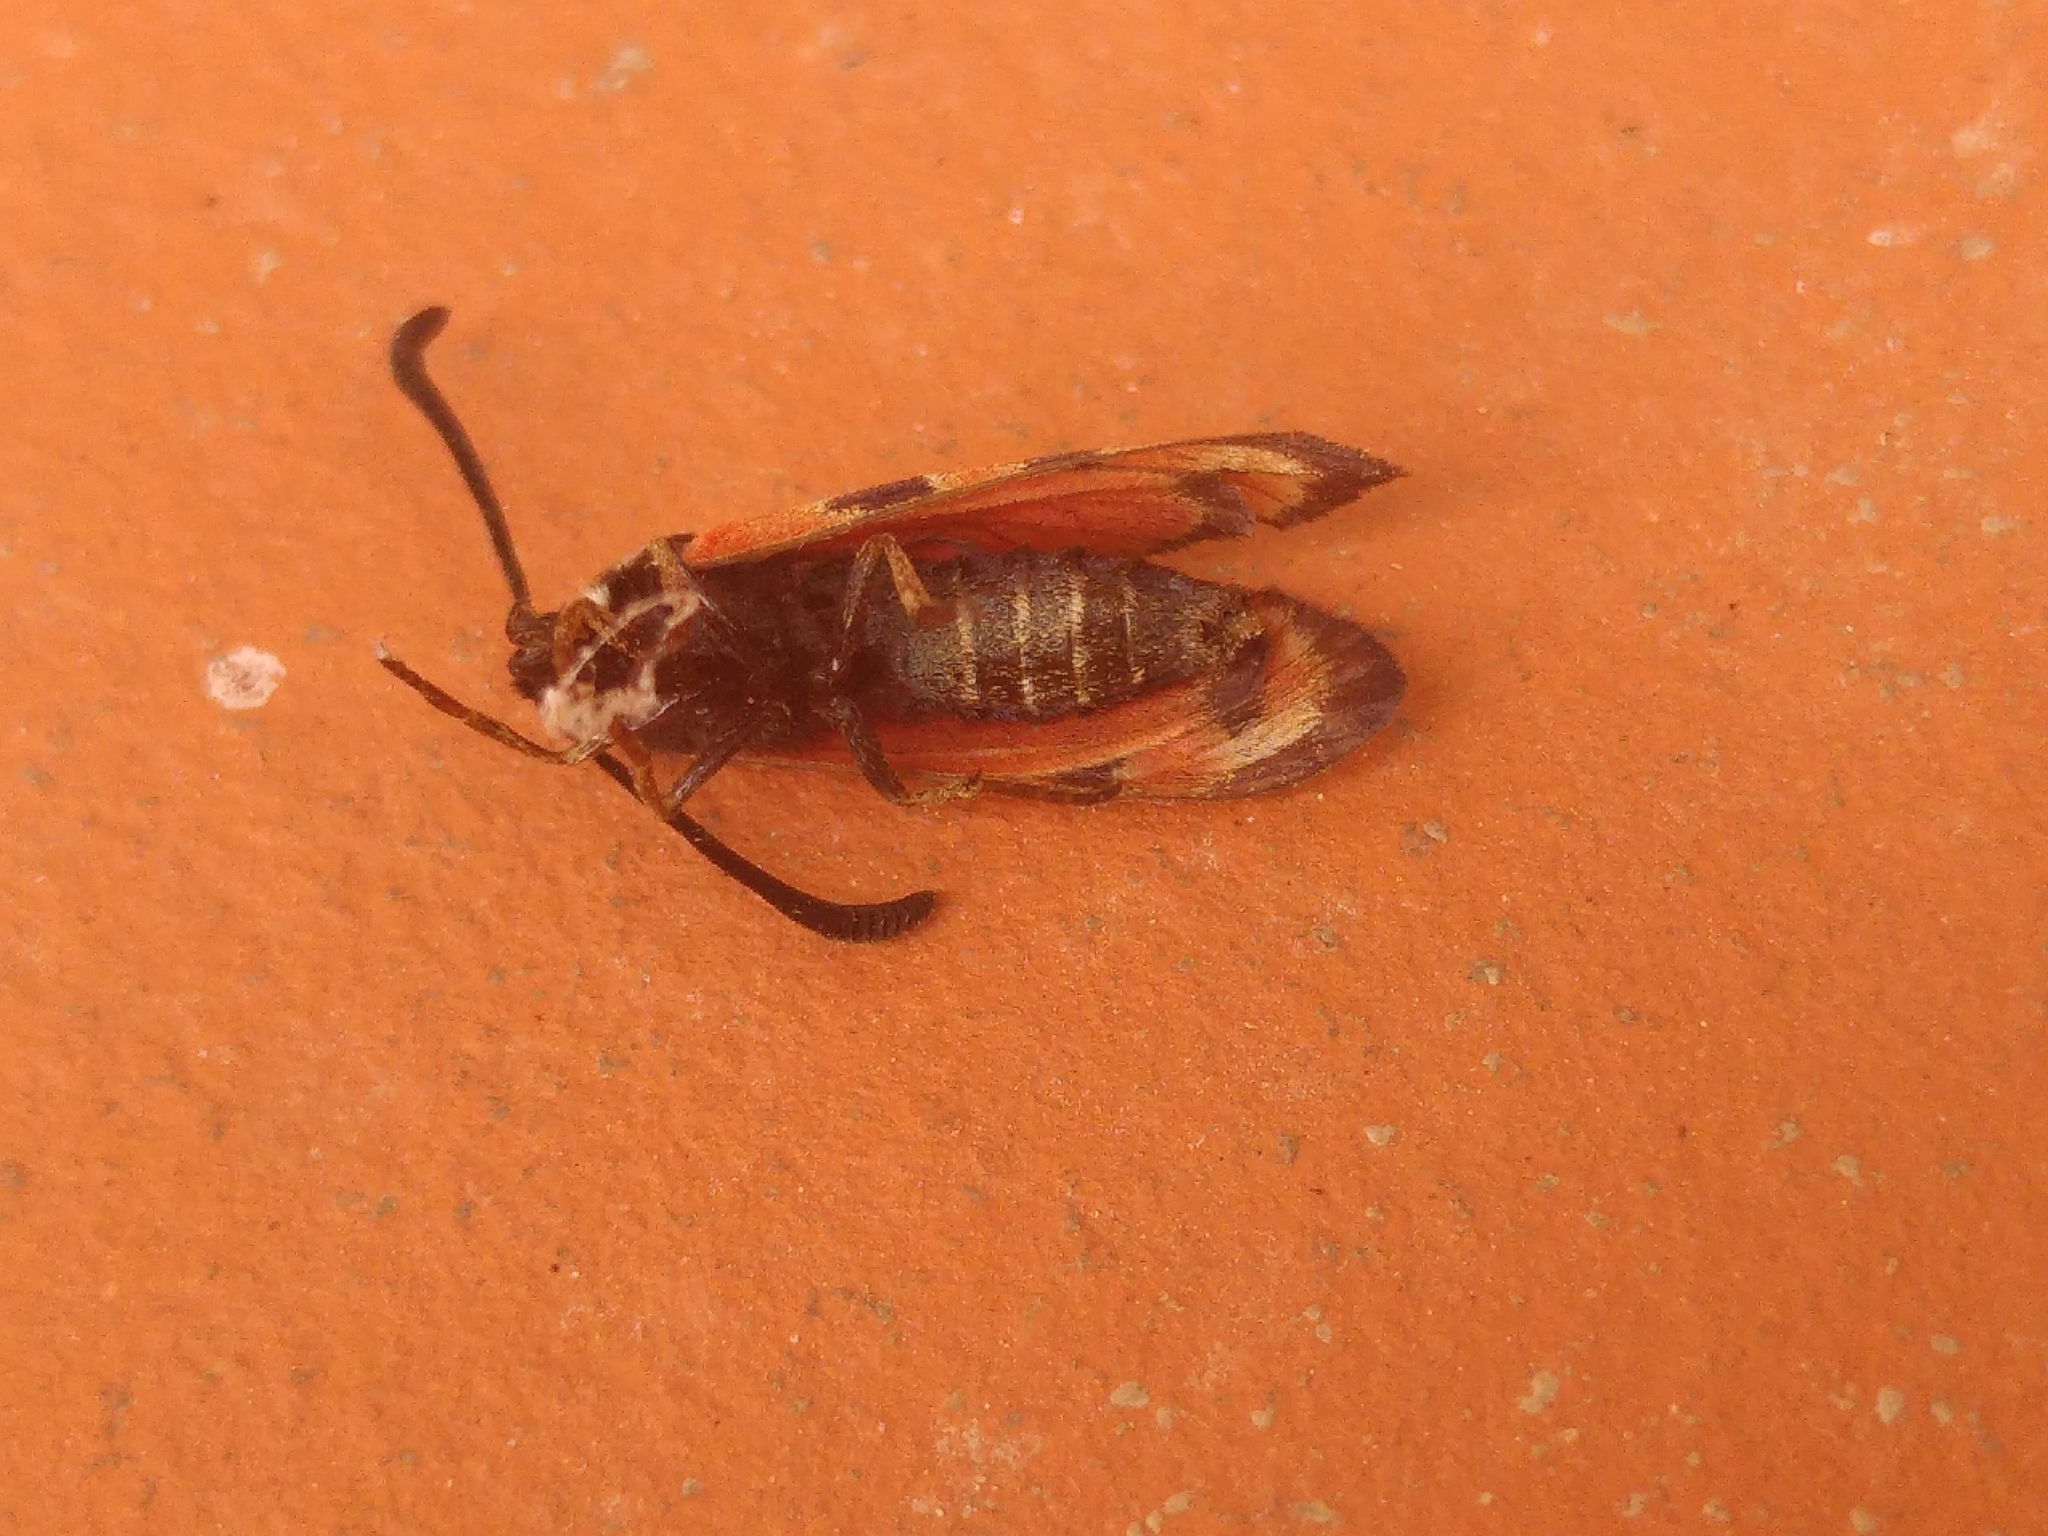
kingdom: Animalia
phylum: Arthropoda
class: Insecta
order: Lepidoptera
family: Zygaenidae
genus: Zygaena
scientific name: Zygaena hilaris
